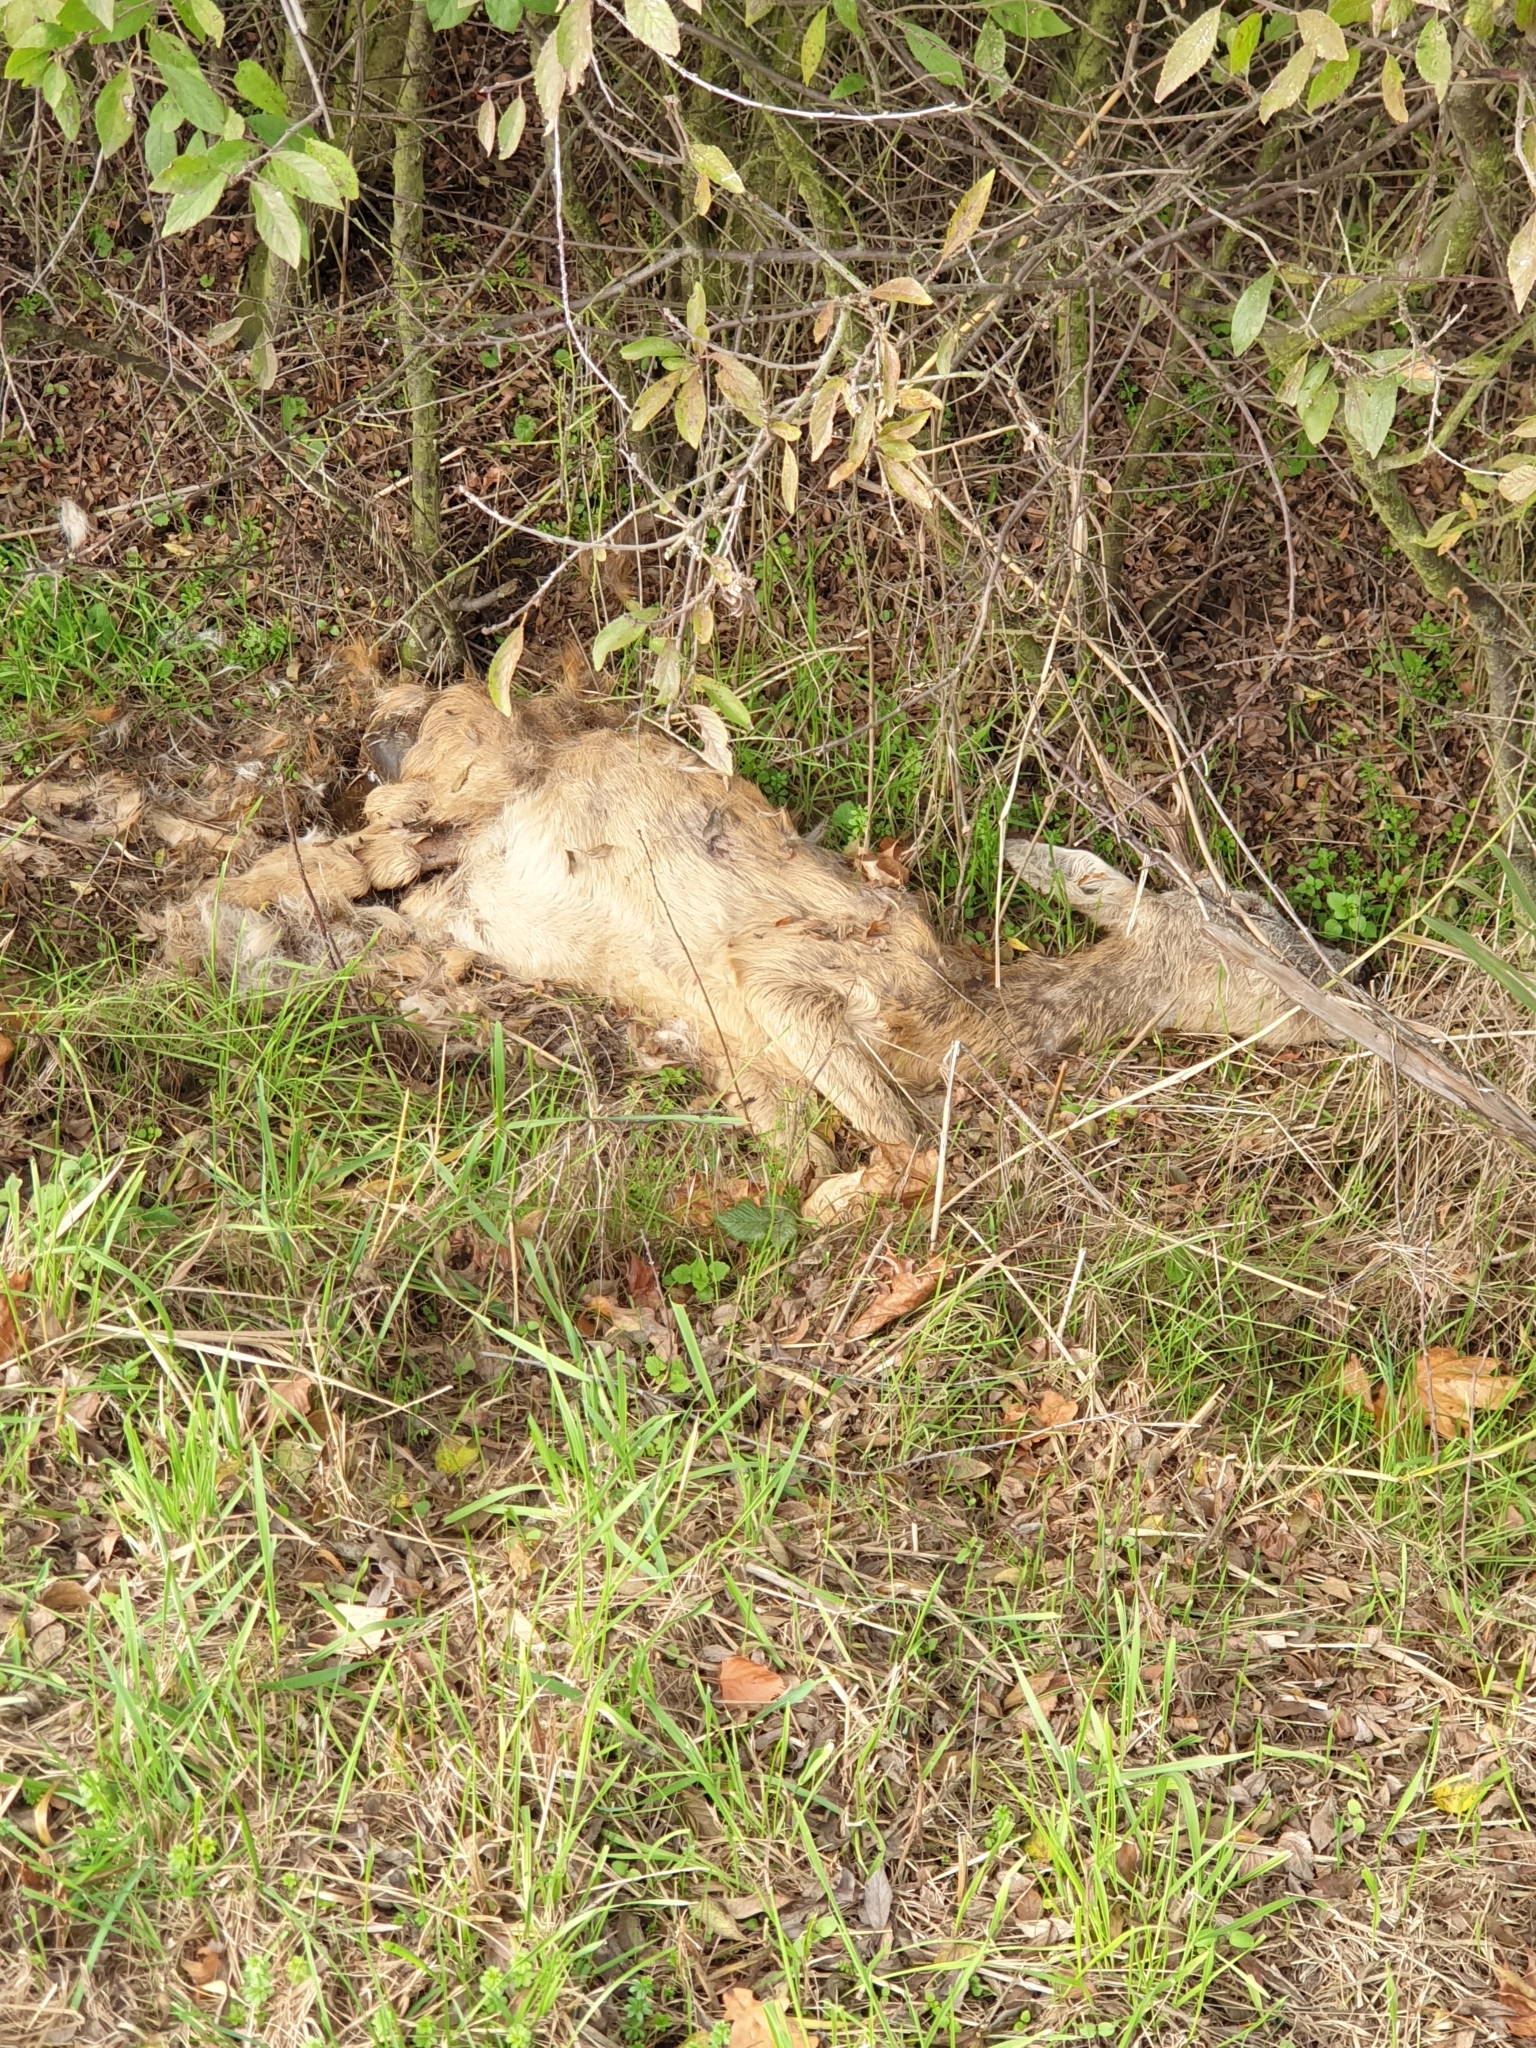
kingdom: Animalia
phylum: Chordata
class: Mammalia
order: Artiodactyla
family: Cervidae
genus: Capreolus
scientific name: Capreolus capreolus
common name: Western roe deer
